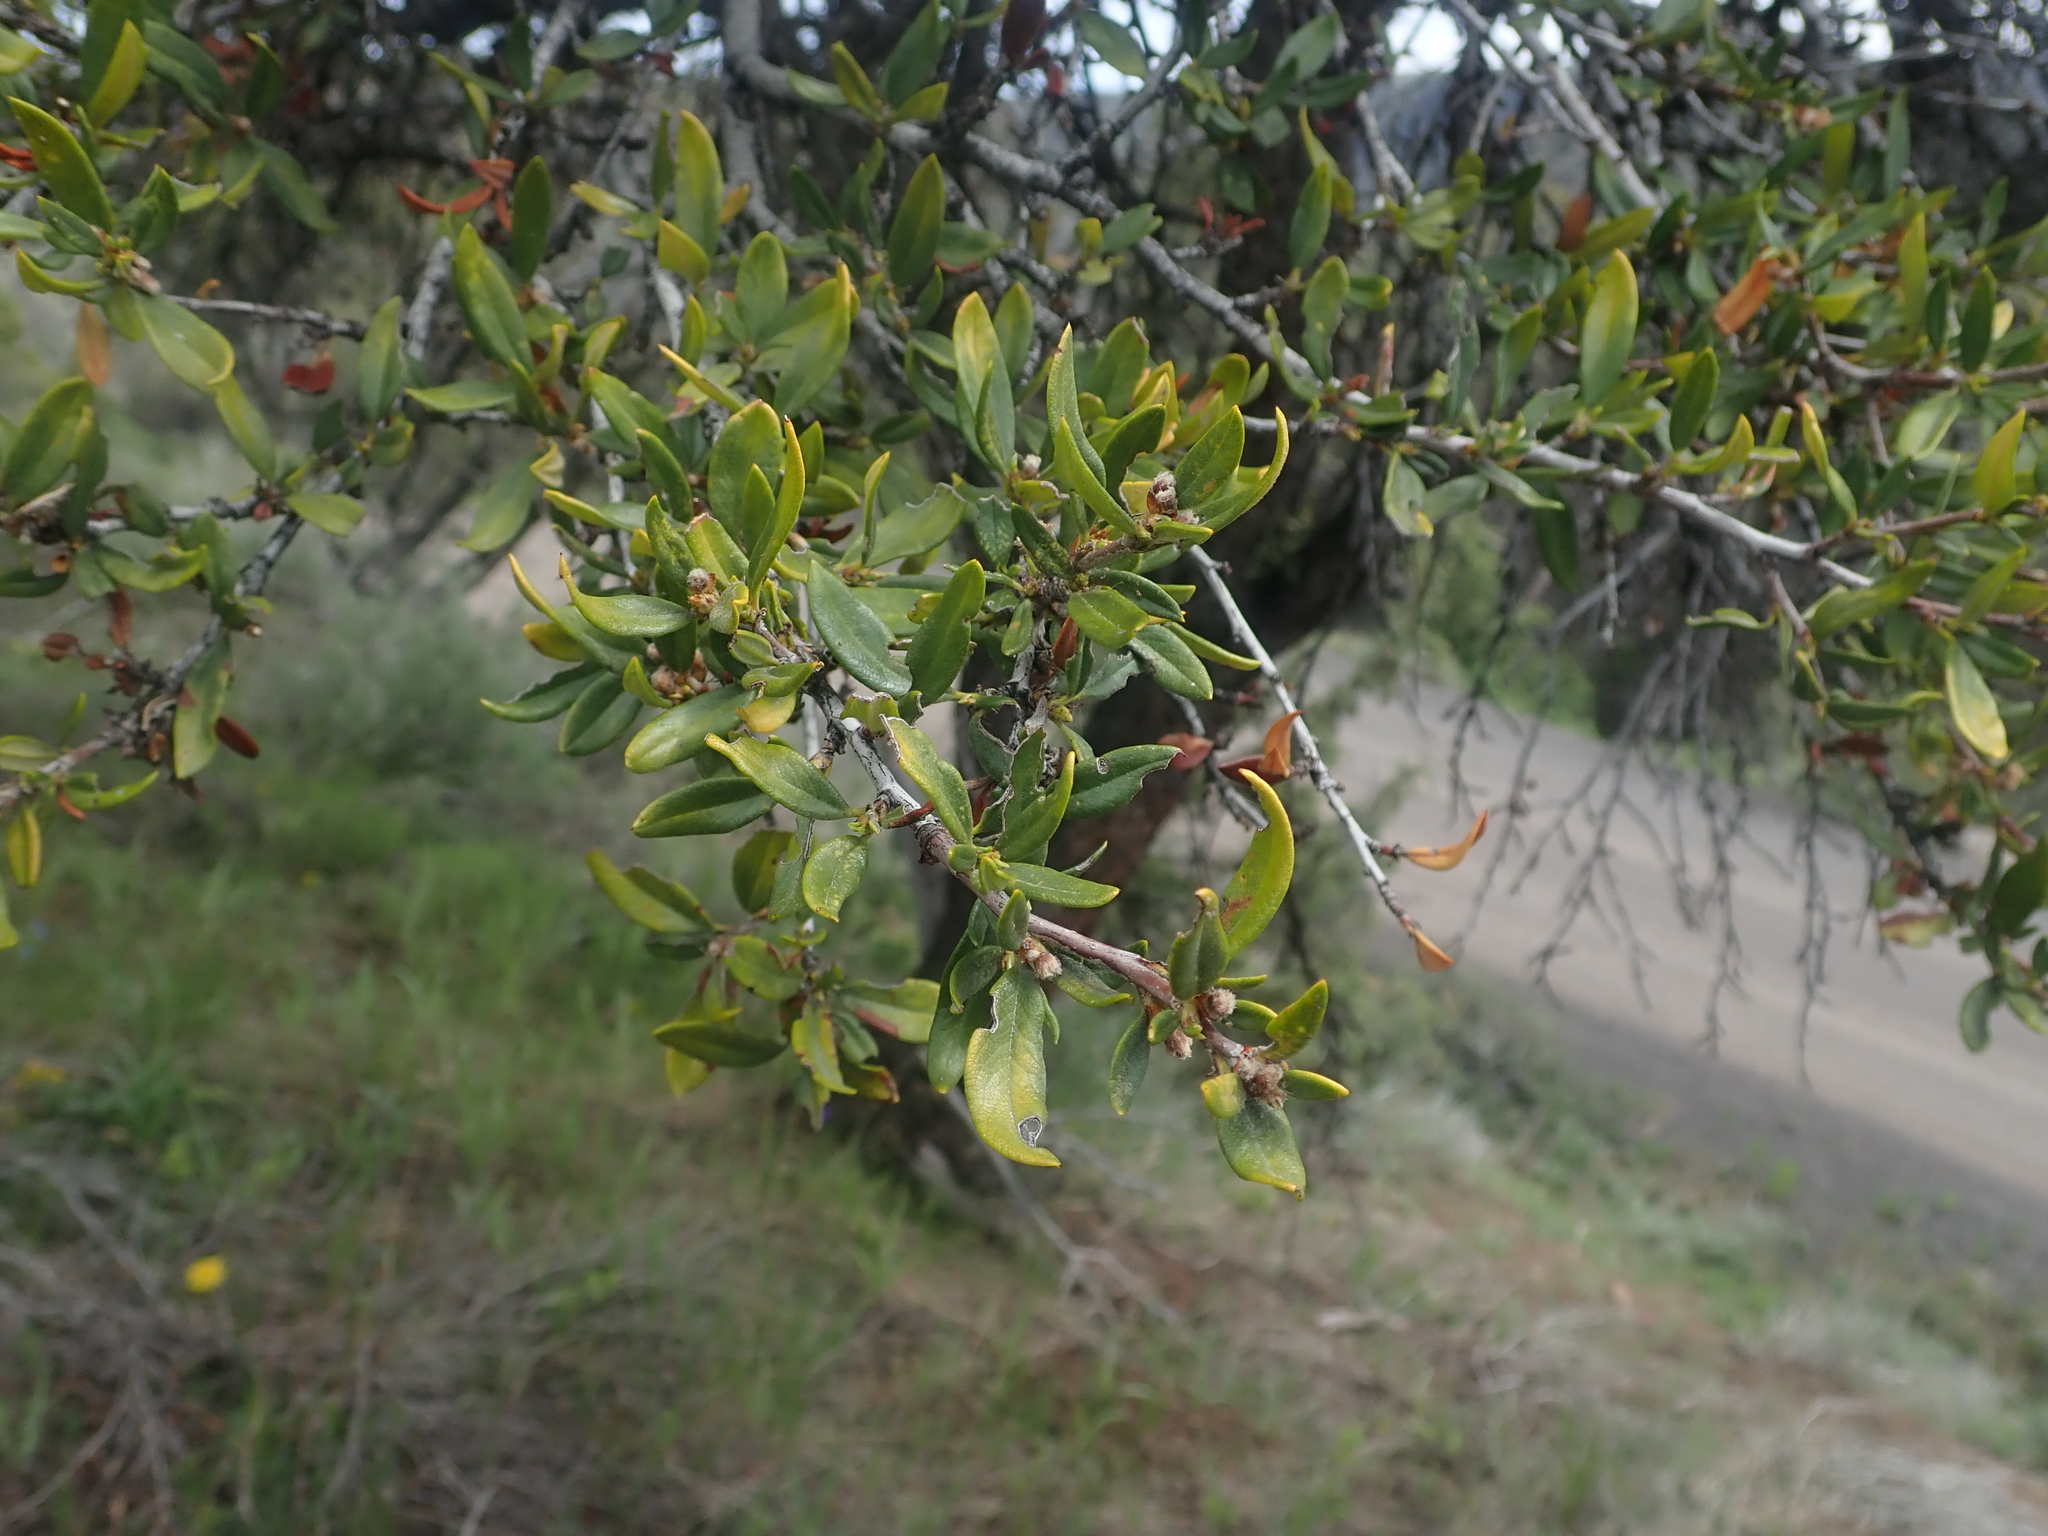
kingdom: Plantae
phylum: Tracheophyta
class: Magnoliopsida
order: Rosales
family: Rosaceae
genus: Cercocarpus
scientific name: Cercocarpus ledifolius
